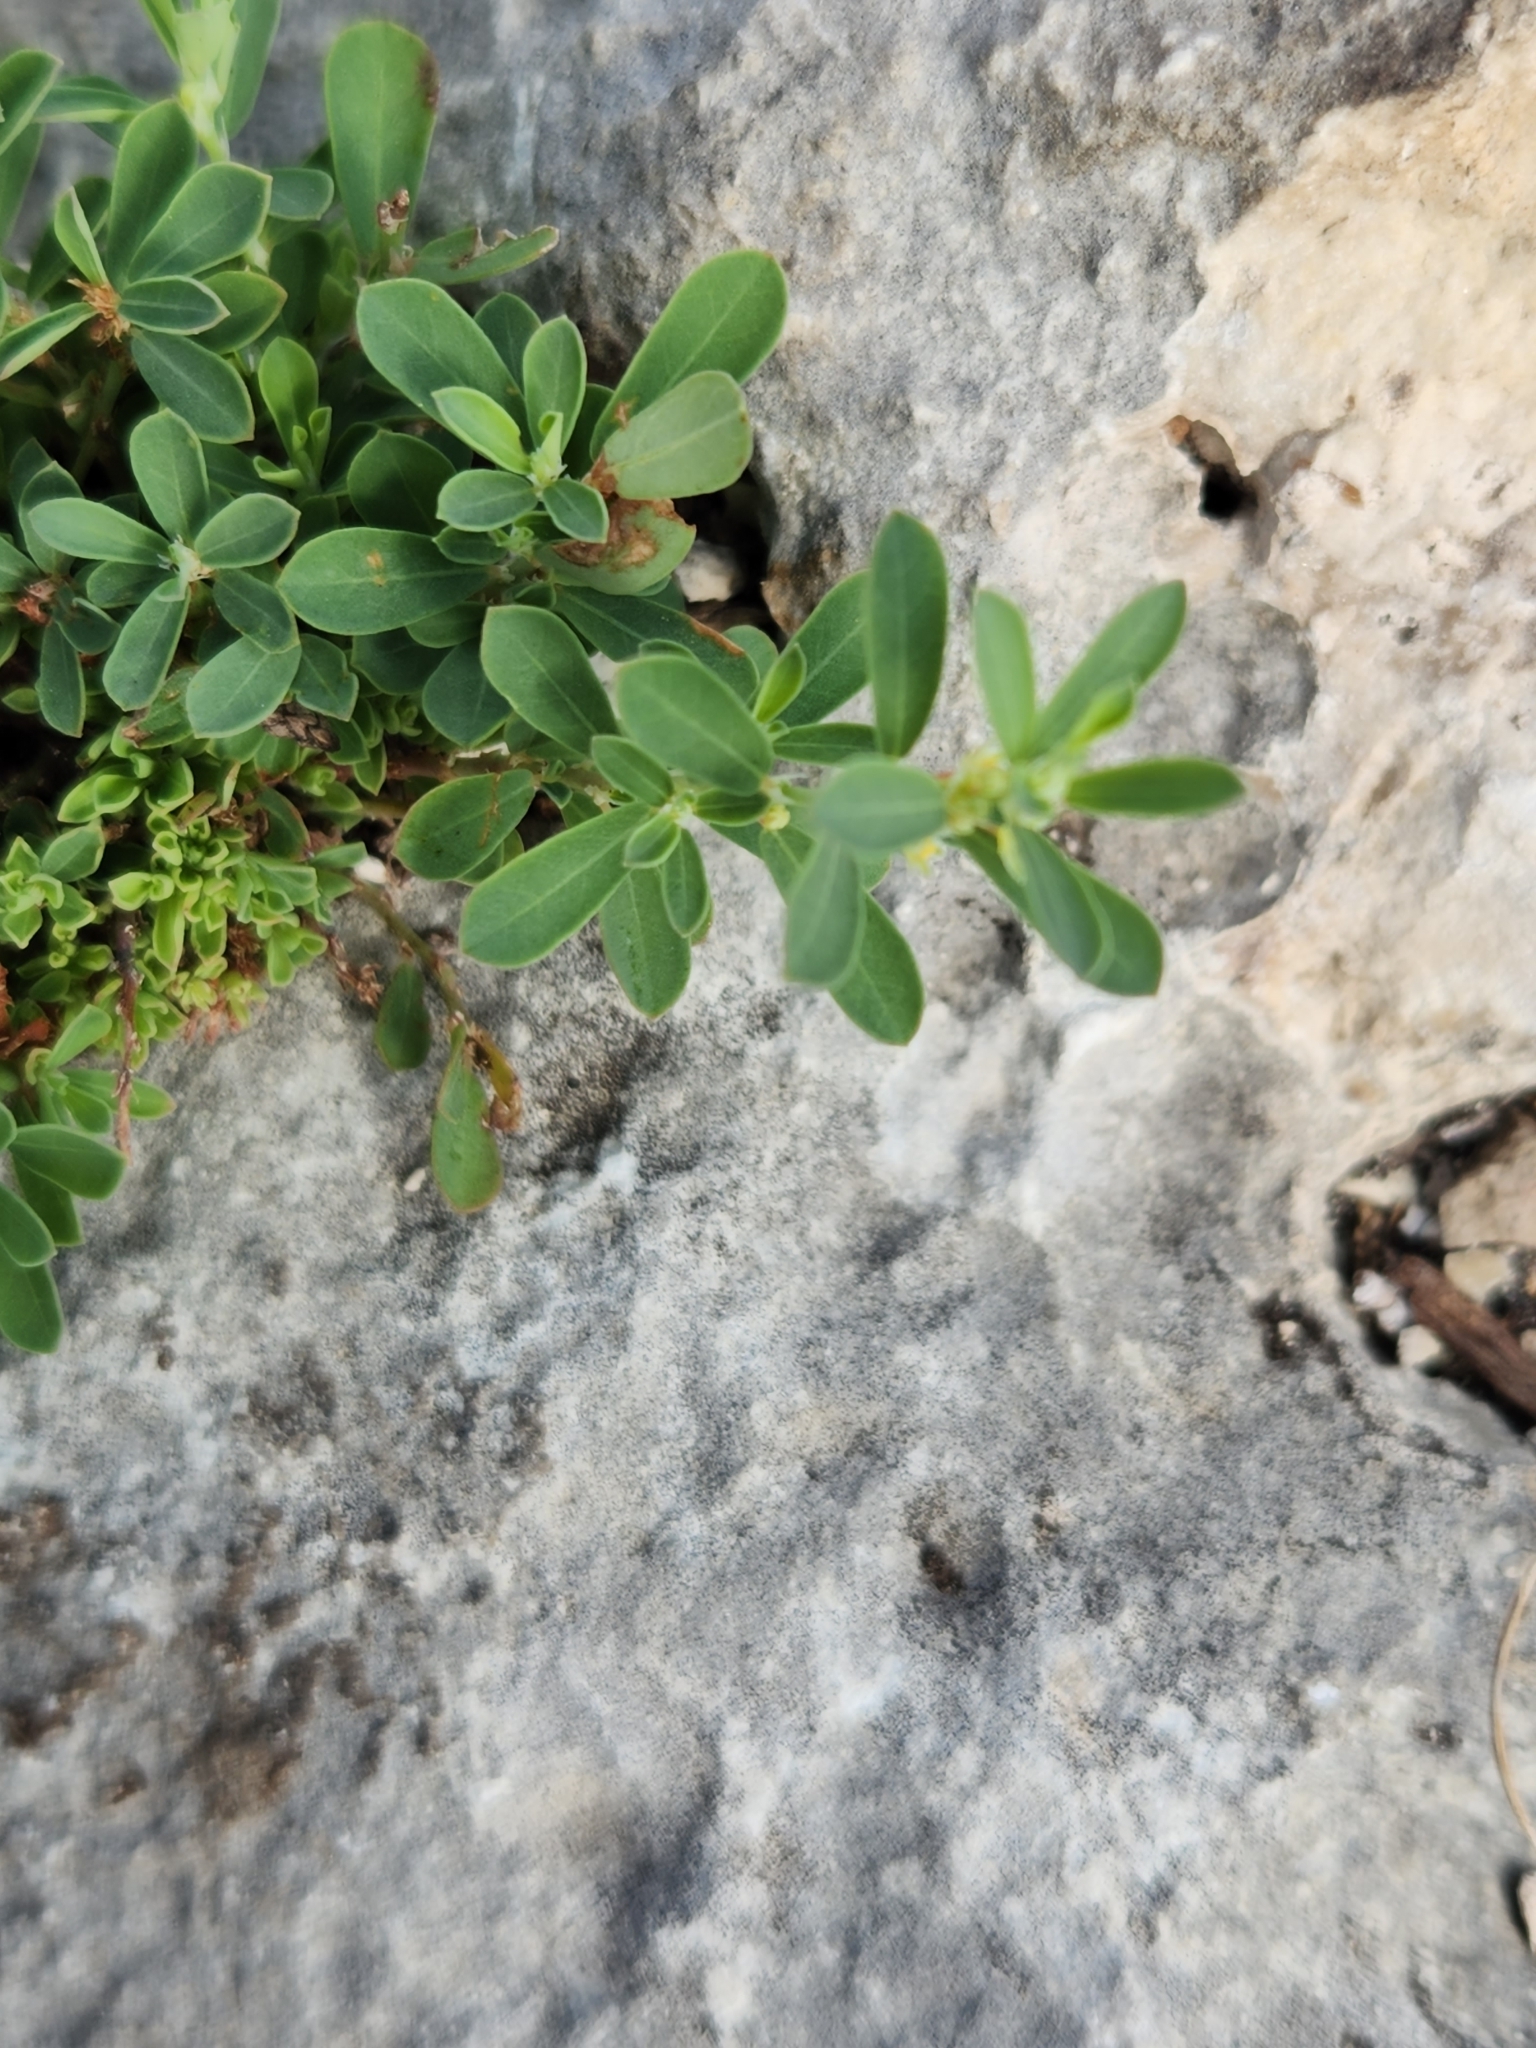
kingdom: Plantae
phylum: Tracheophyta
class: Magnoliopsida
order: Malpighiales
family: Phyllanthaceae
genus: Phyllanthus
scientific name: Phyllanthus polygonoides
